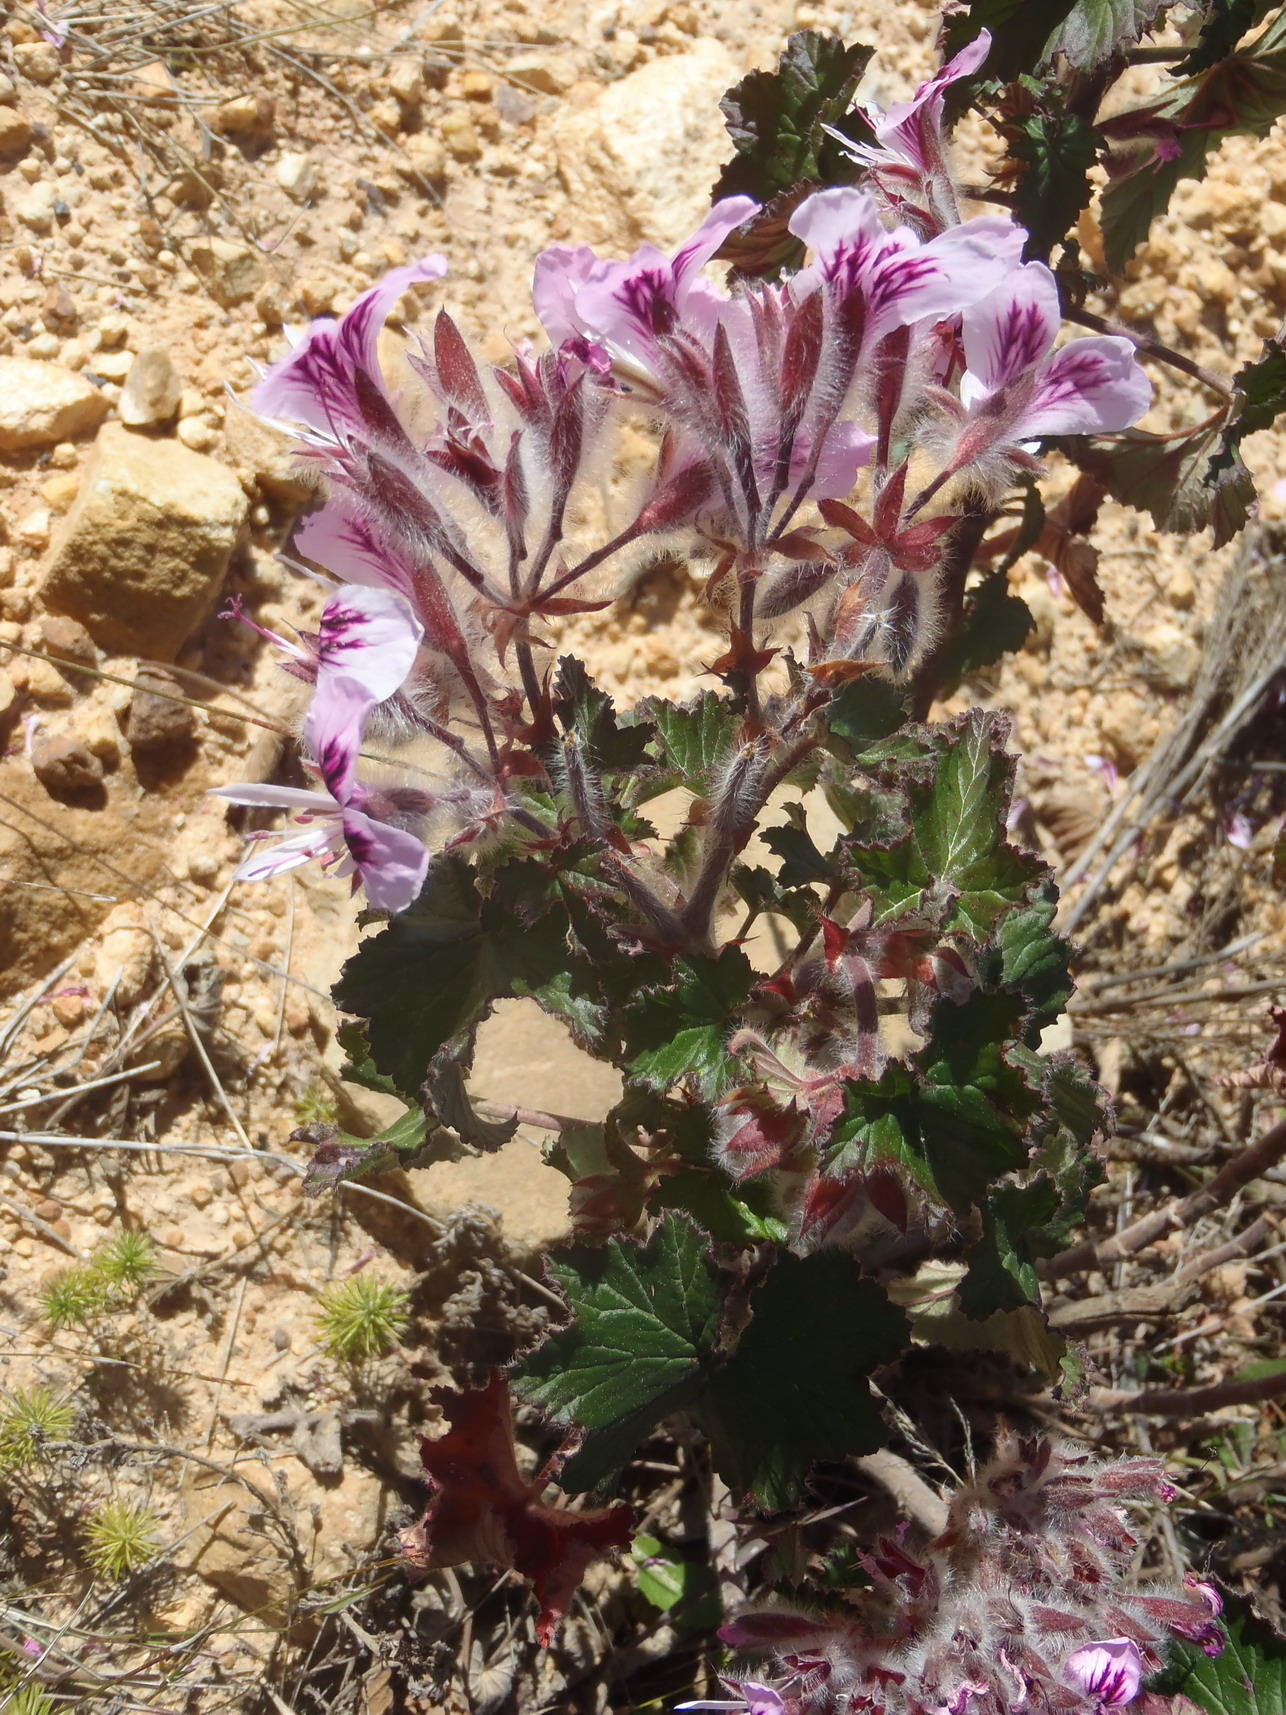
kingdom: Plantae
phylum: Tracheophyta
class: Magnoliopsida
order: Geraniales
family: Geraniaceae
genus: Pelargonium
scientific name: Pelargonium cordifolium
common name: Heart-leaf pelargonium
